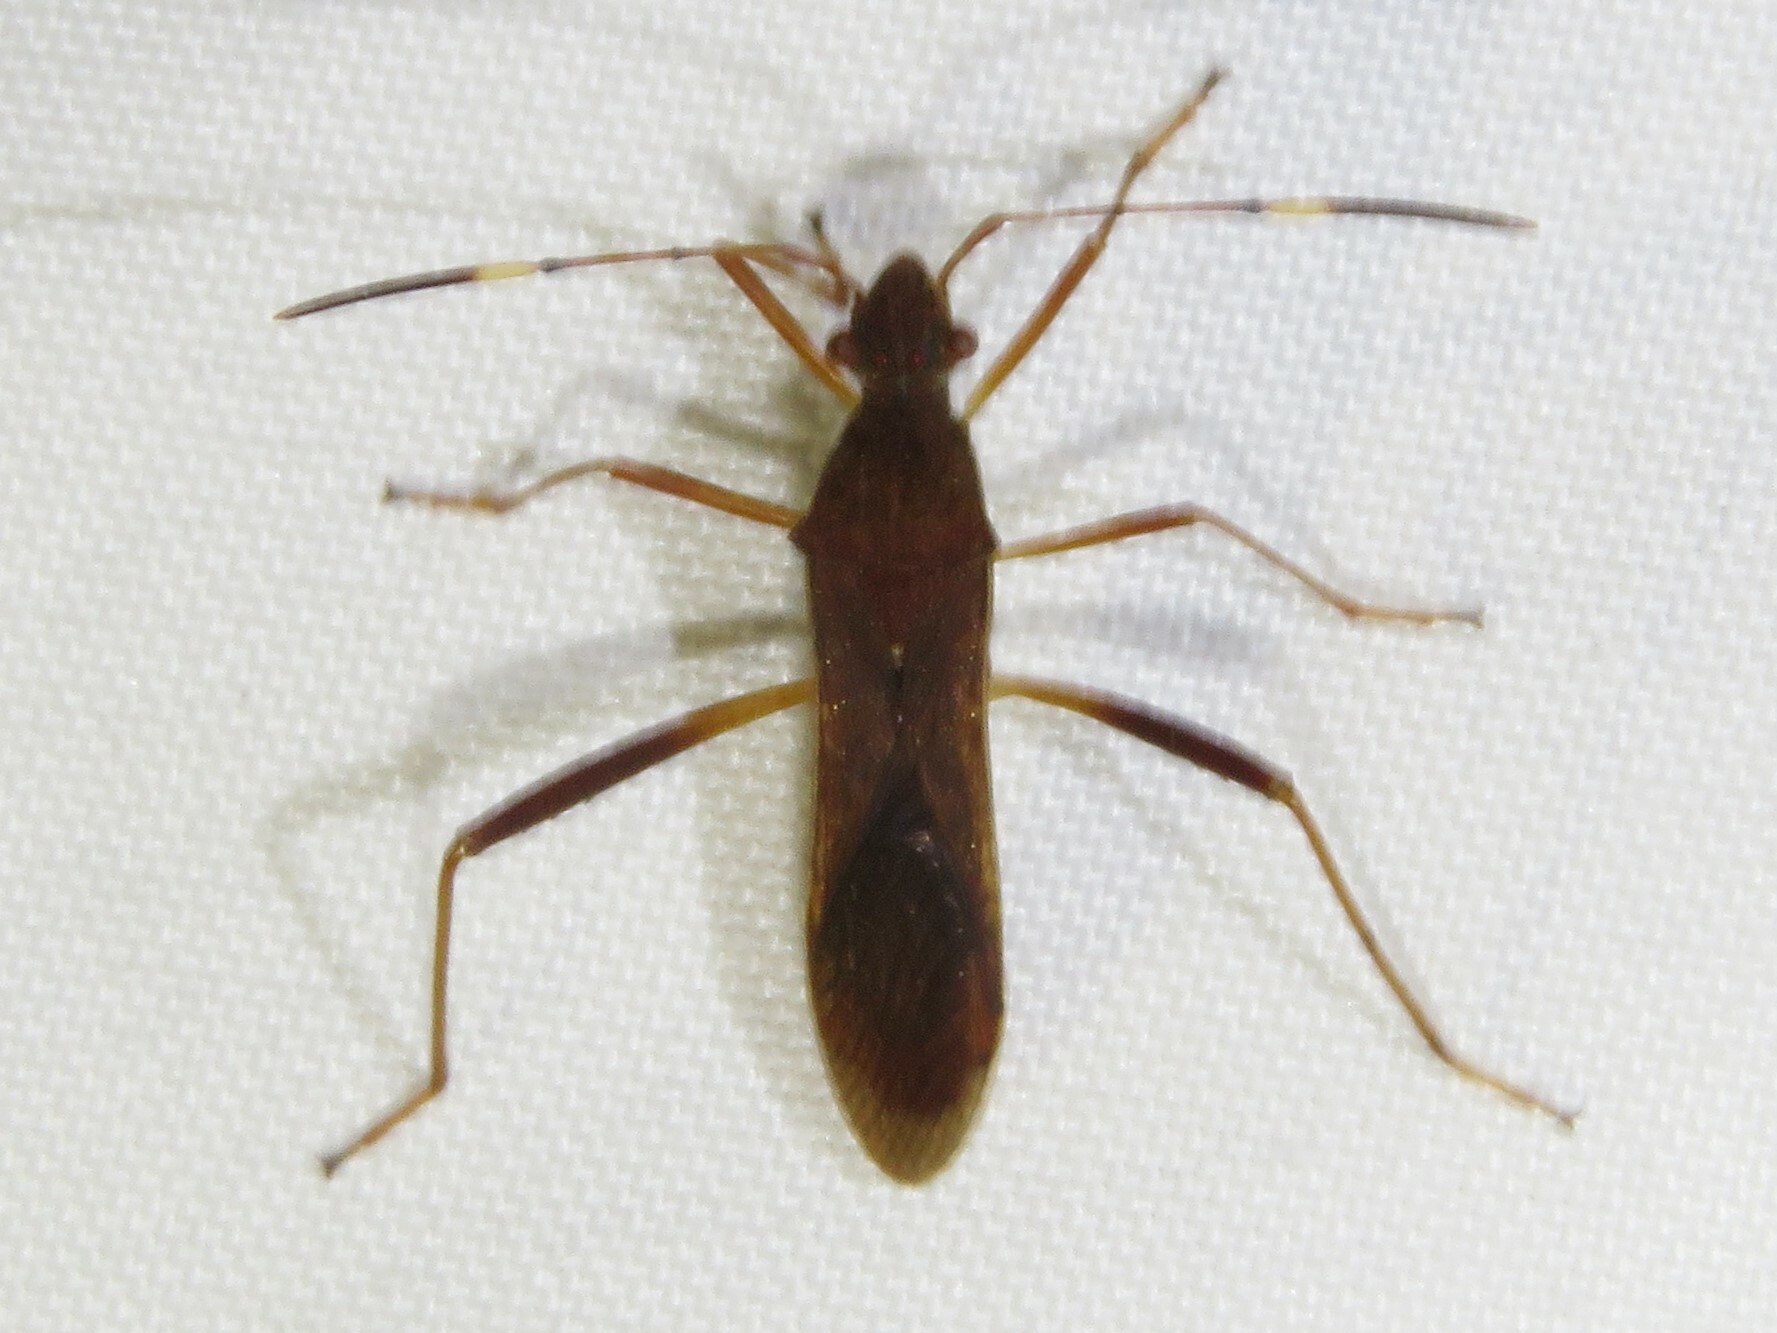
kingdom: Animalia
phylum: Arthropoda
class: Insecta
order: Hemiptera
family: Alydidae
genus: Megalotomus
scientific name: Megalotomus quinquespinosus
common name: Lupine bug
